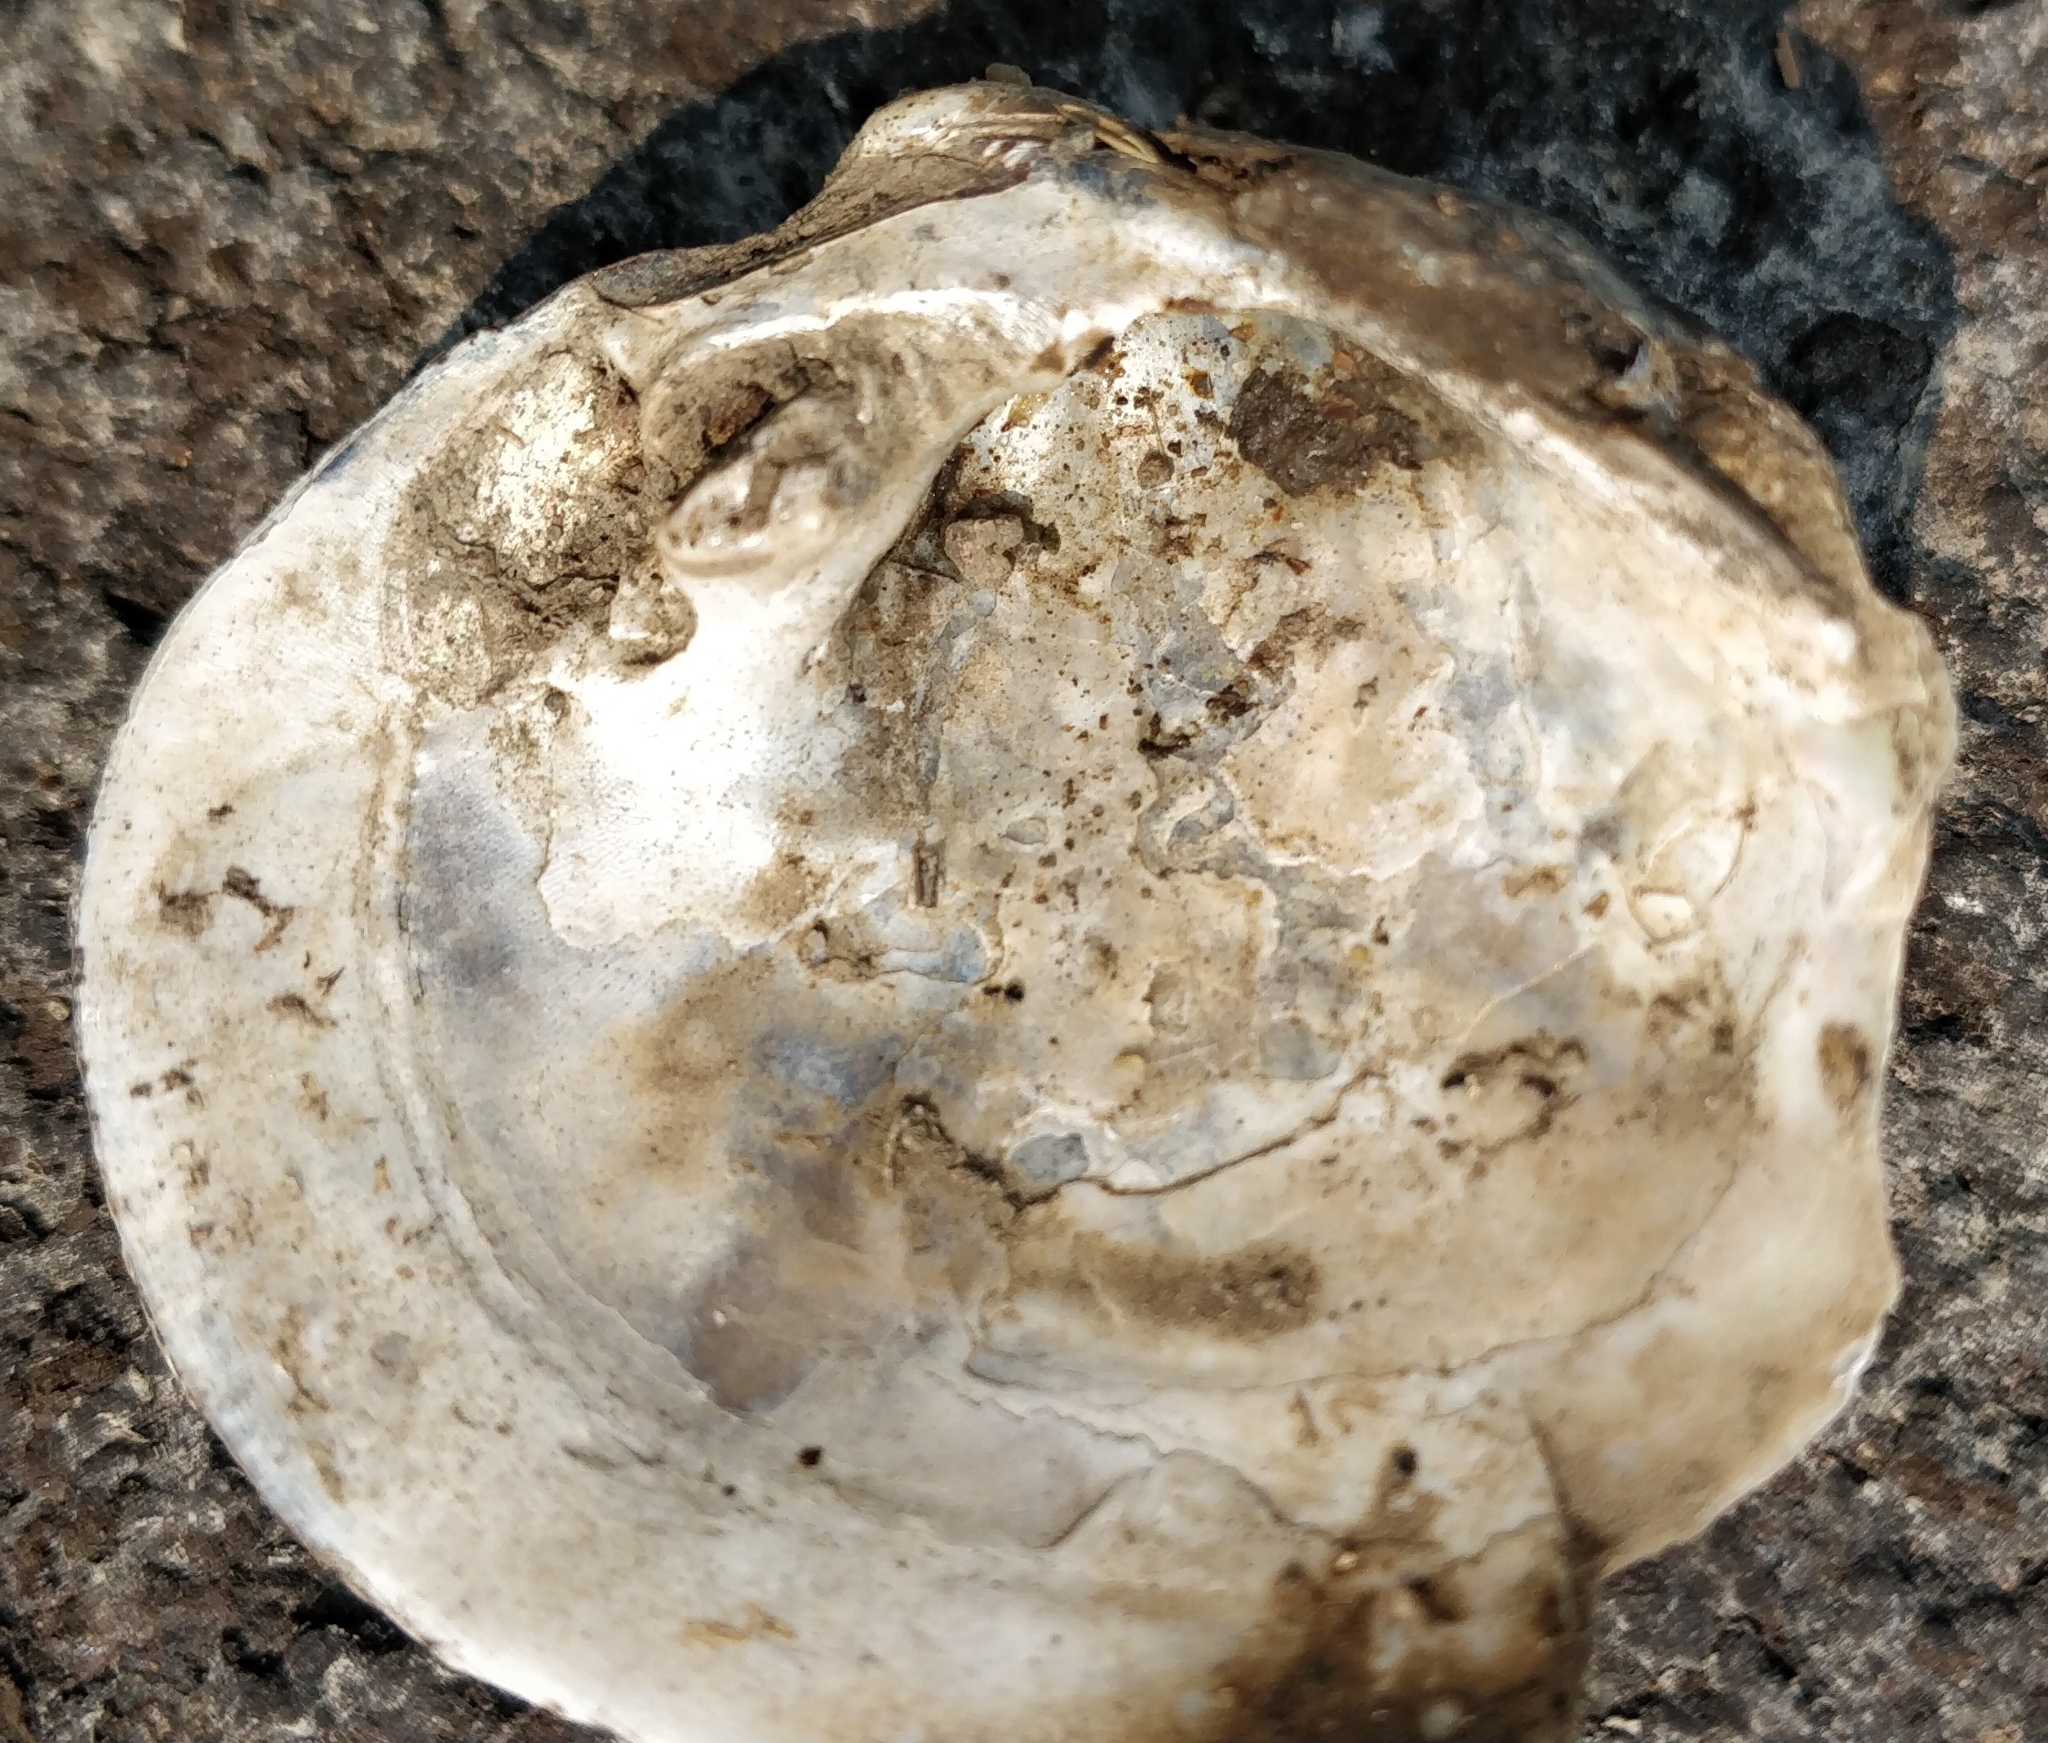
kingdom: Animalia
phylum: Mollusca
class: Bivalvia
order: Unionida
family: Unionidae
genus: Cyclonaias
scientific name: Cyclonaias pustulosa
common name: Pimpleback
